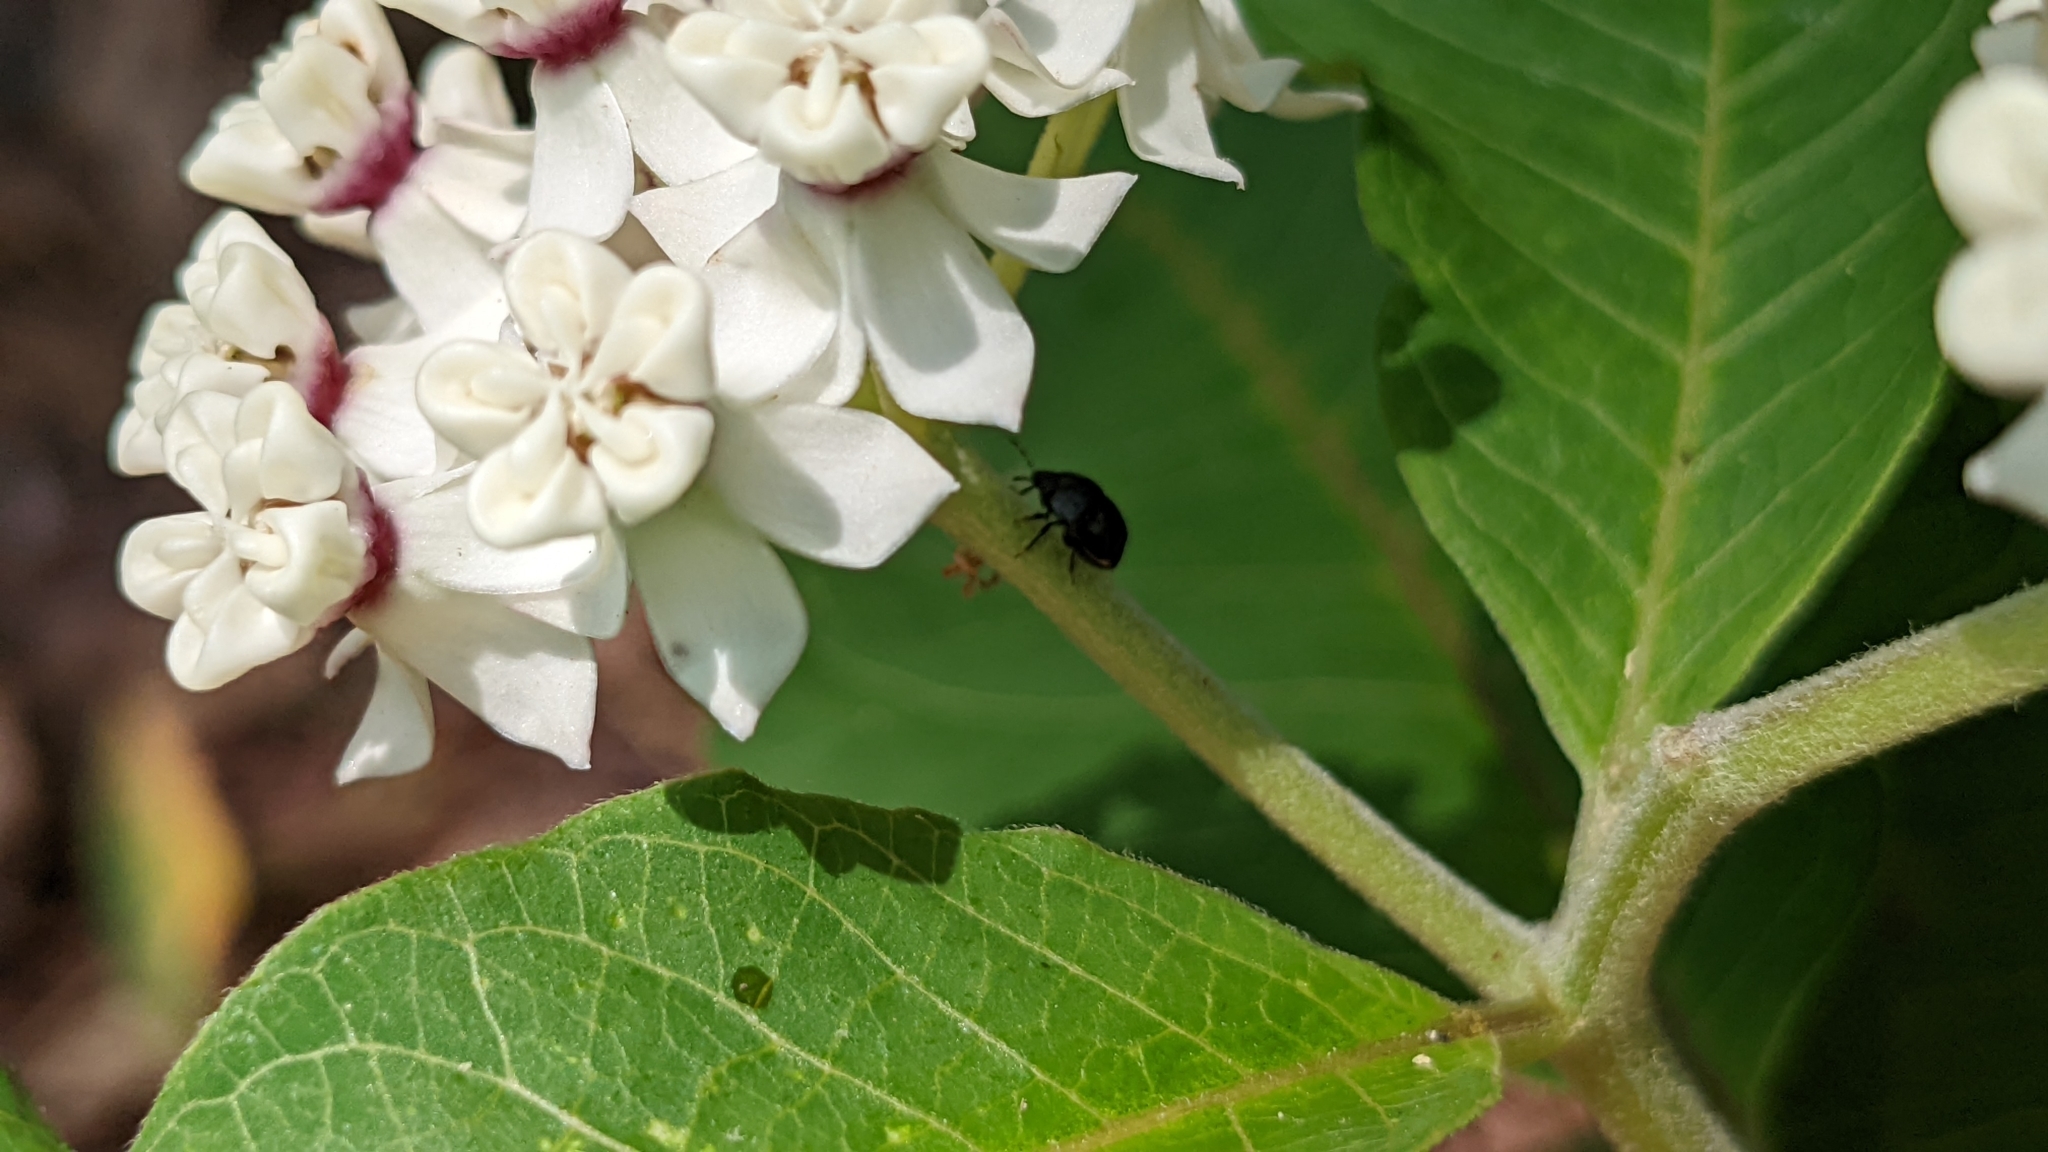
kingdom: Plantae
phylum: Tracheophyta
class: Magnoliopsida
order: Gentianales
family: Apocynaceae
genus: Asclepias
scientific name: Asclepias variegata
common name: Variegated milkweed
